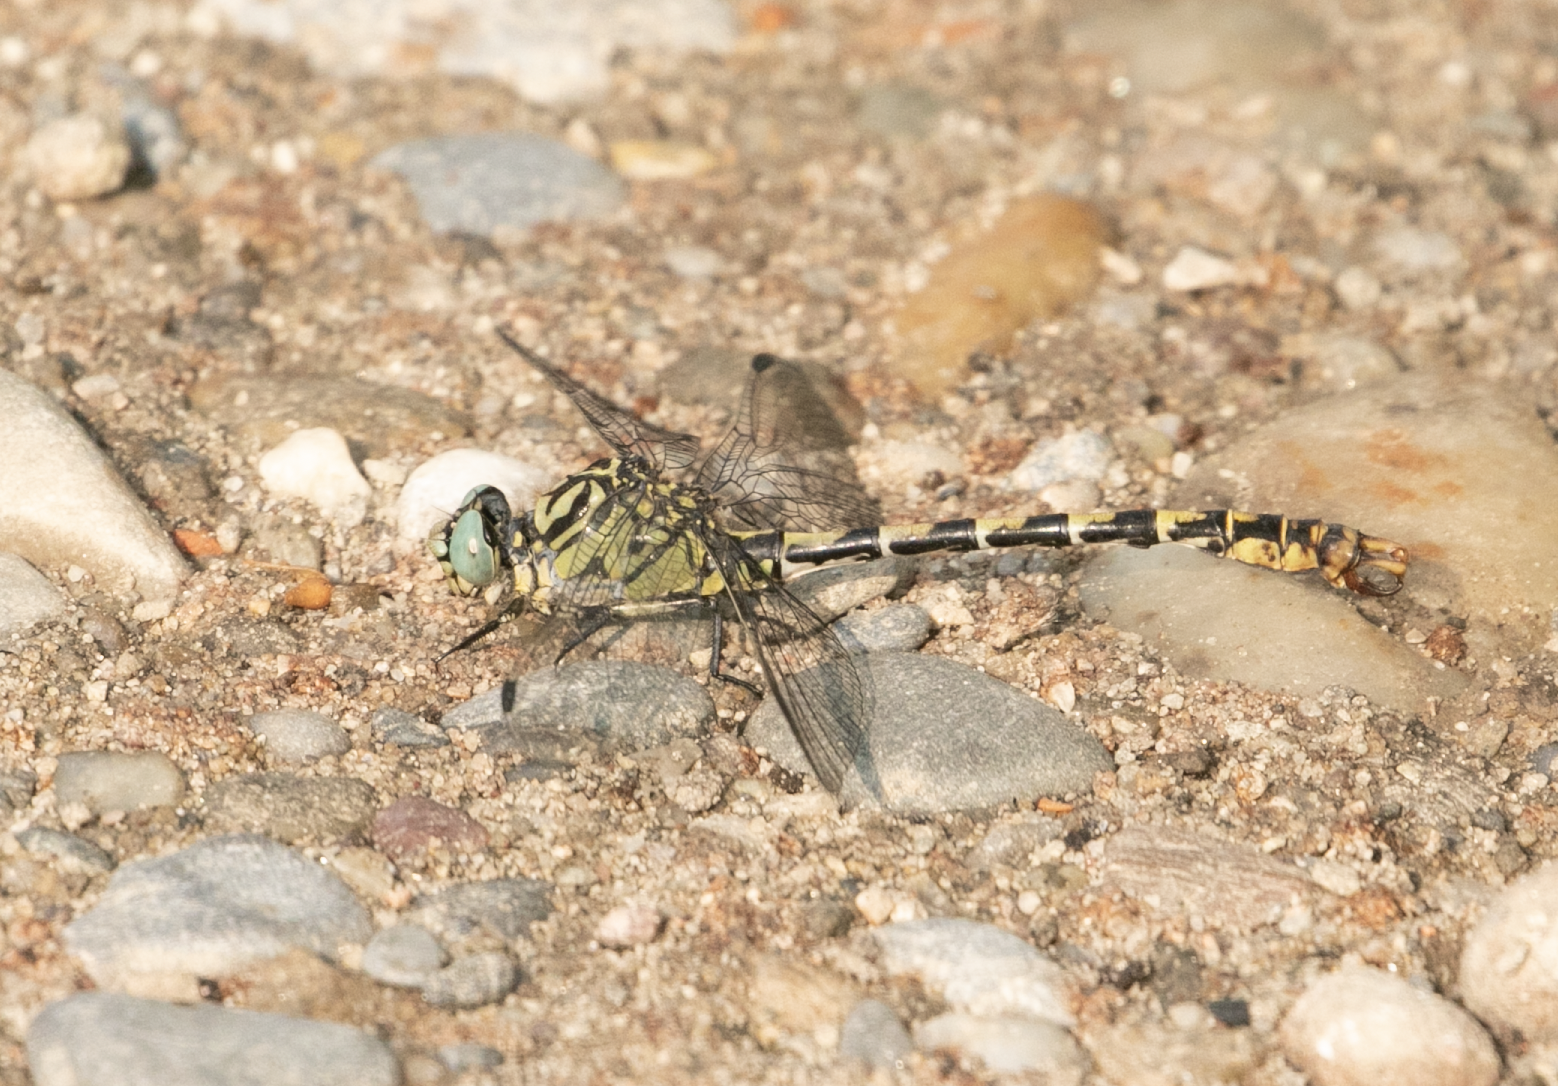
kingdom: Animalia
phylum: Arthropoda
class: Insecta
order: Odonata
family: Gomphidae
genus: Onychogomphus
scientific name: Onychogomphus forcipatus
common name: Small pincertail
